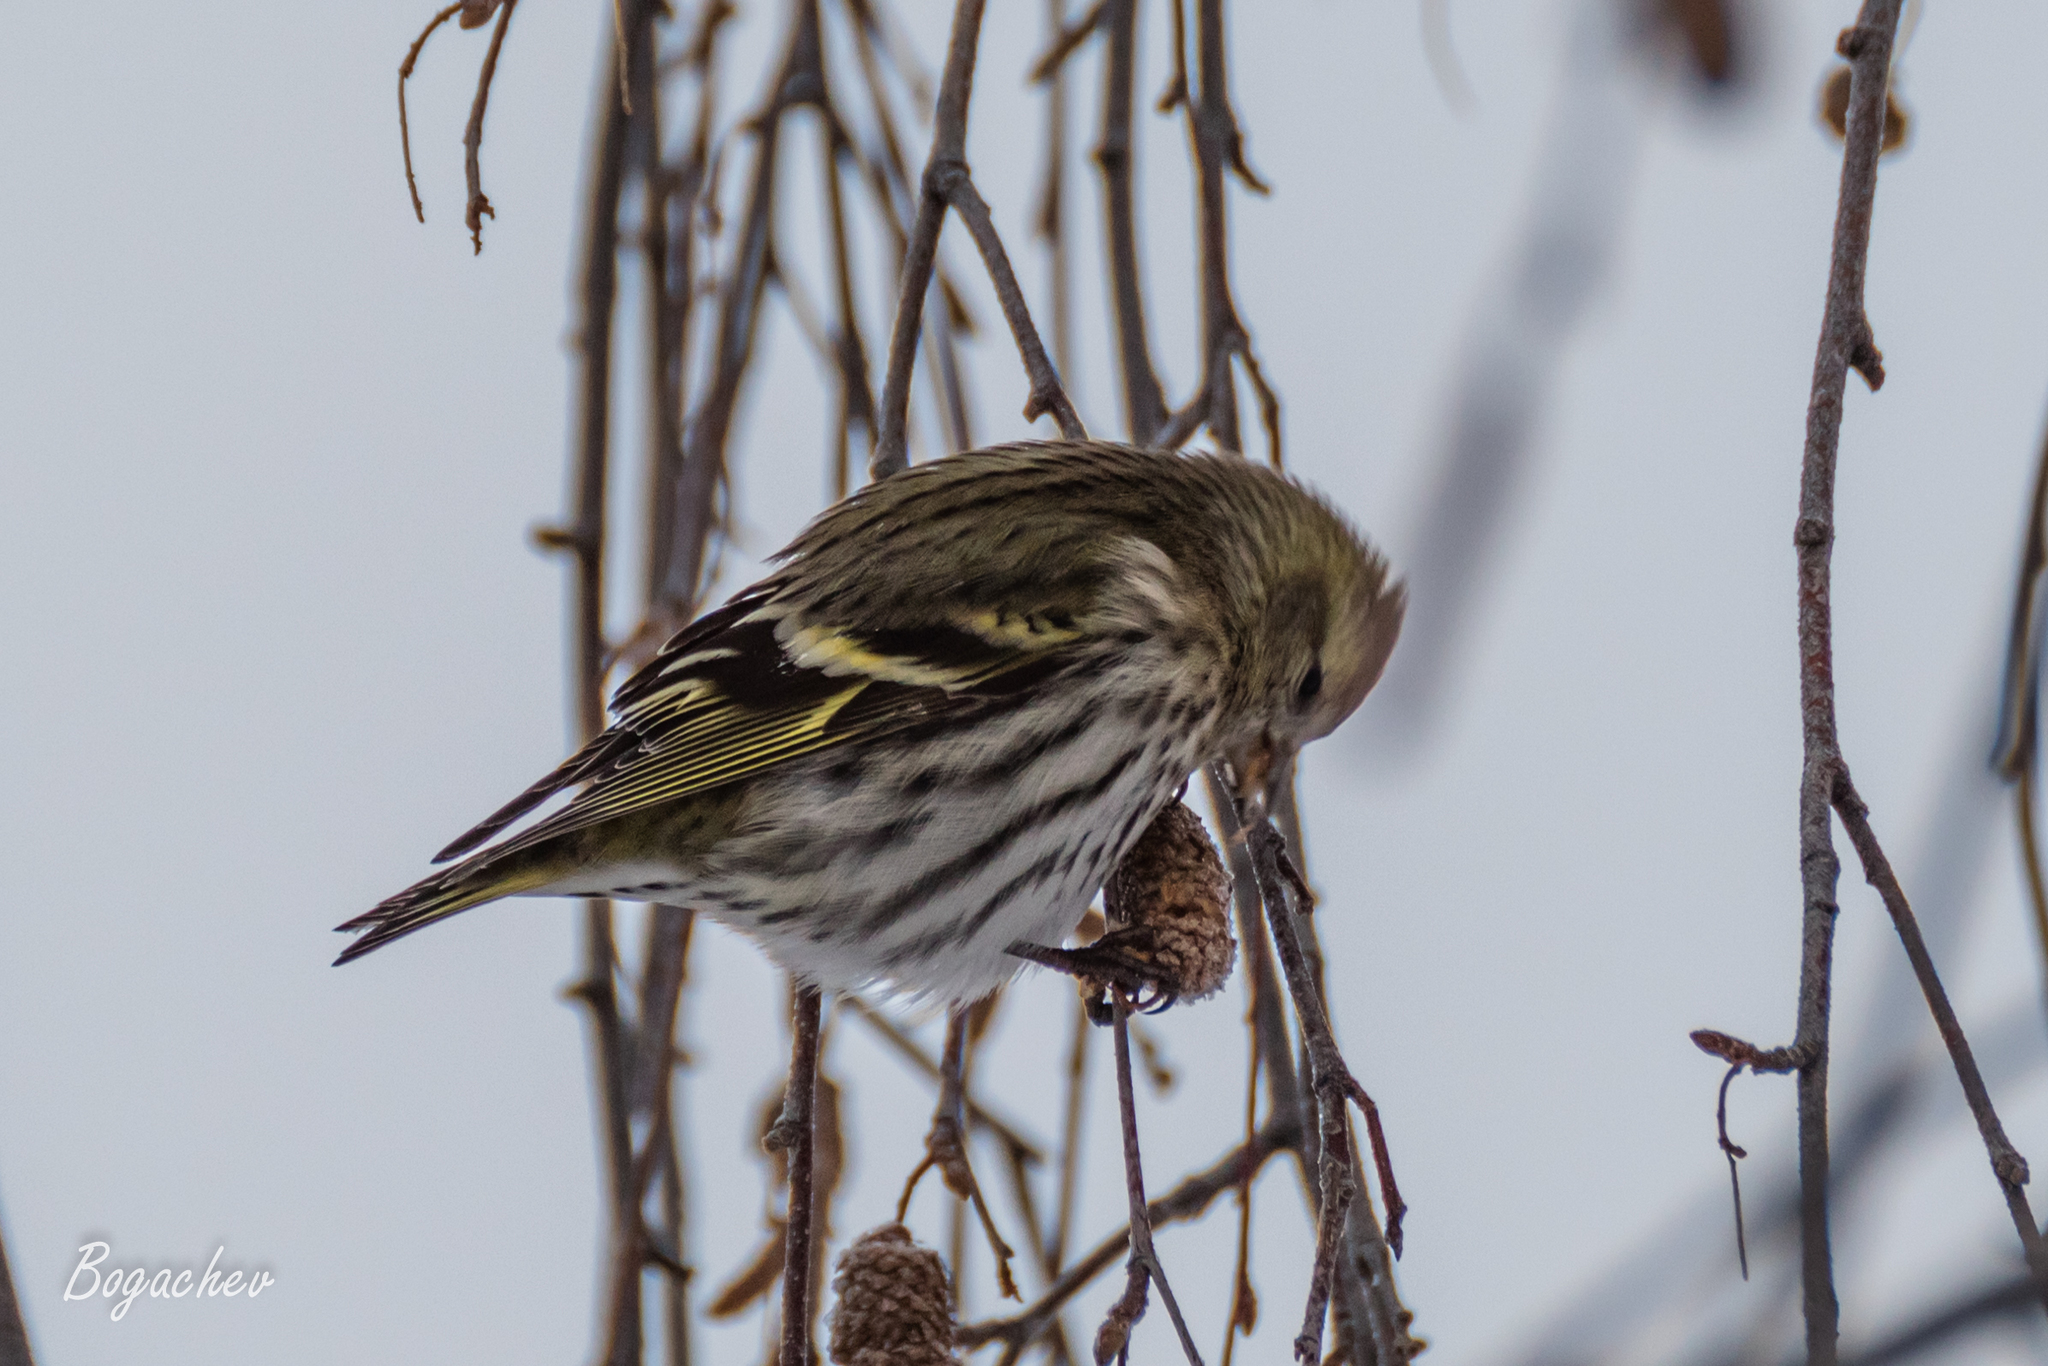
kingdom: Animalia
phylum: Chordata
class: Aves
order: Passeriformes
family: Fringillidae
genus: Spinus
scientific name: Spinus spinus
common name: Eurasian siskin
